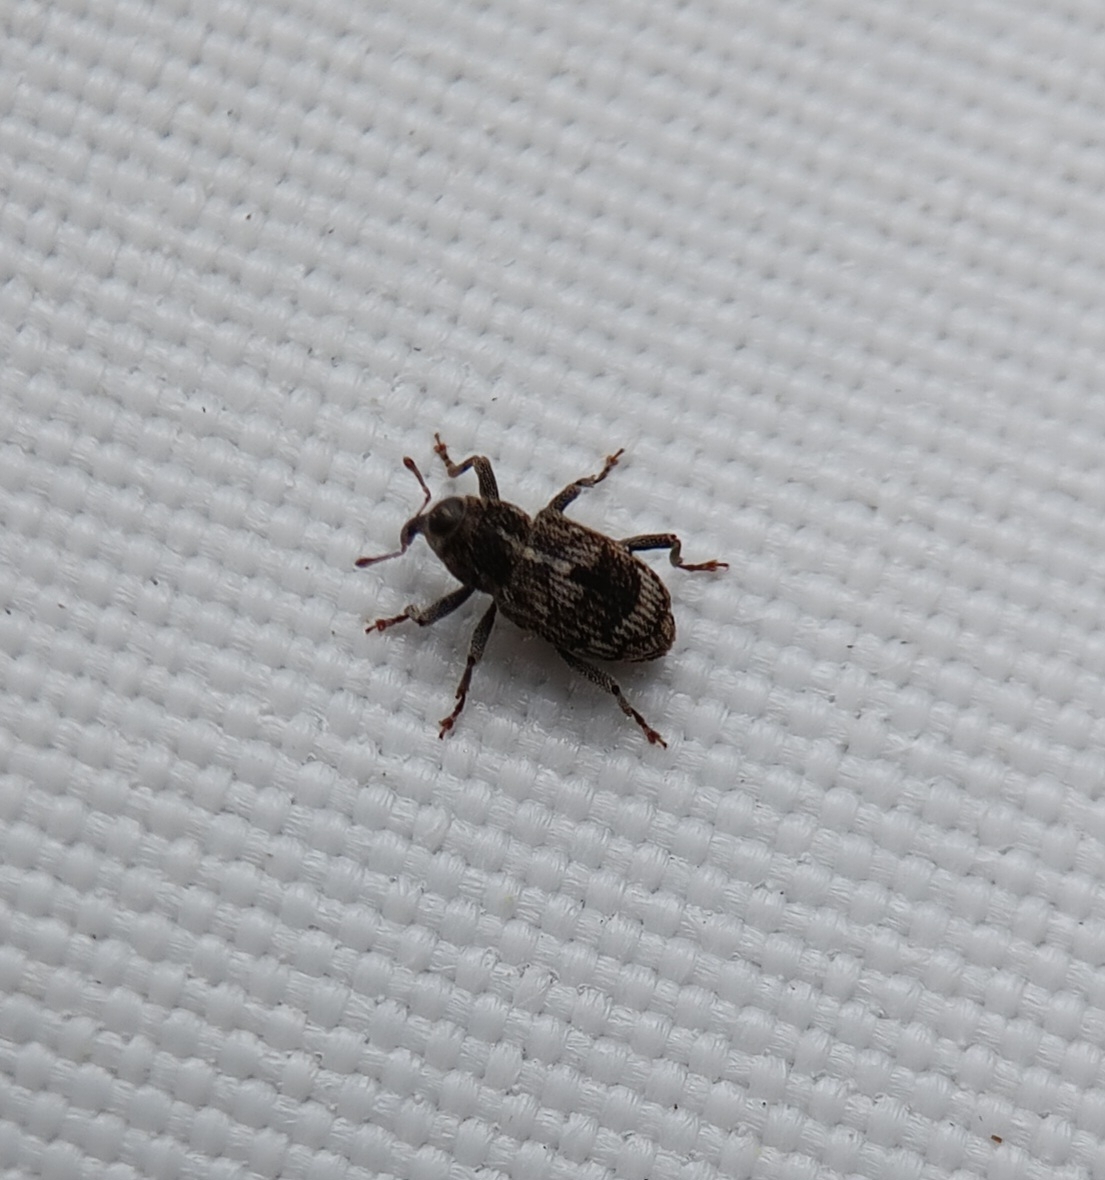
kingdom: Animalia
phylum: Arthropoda
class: Insecta
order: Coleoptera
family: Curculionidae
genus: Acoptus
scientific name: Acoptus suturalis
